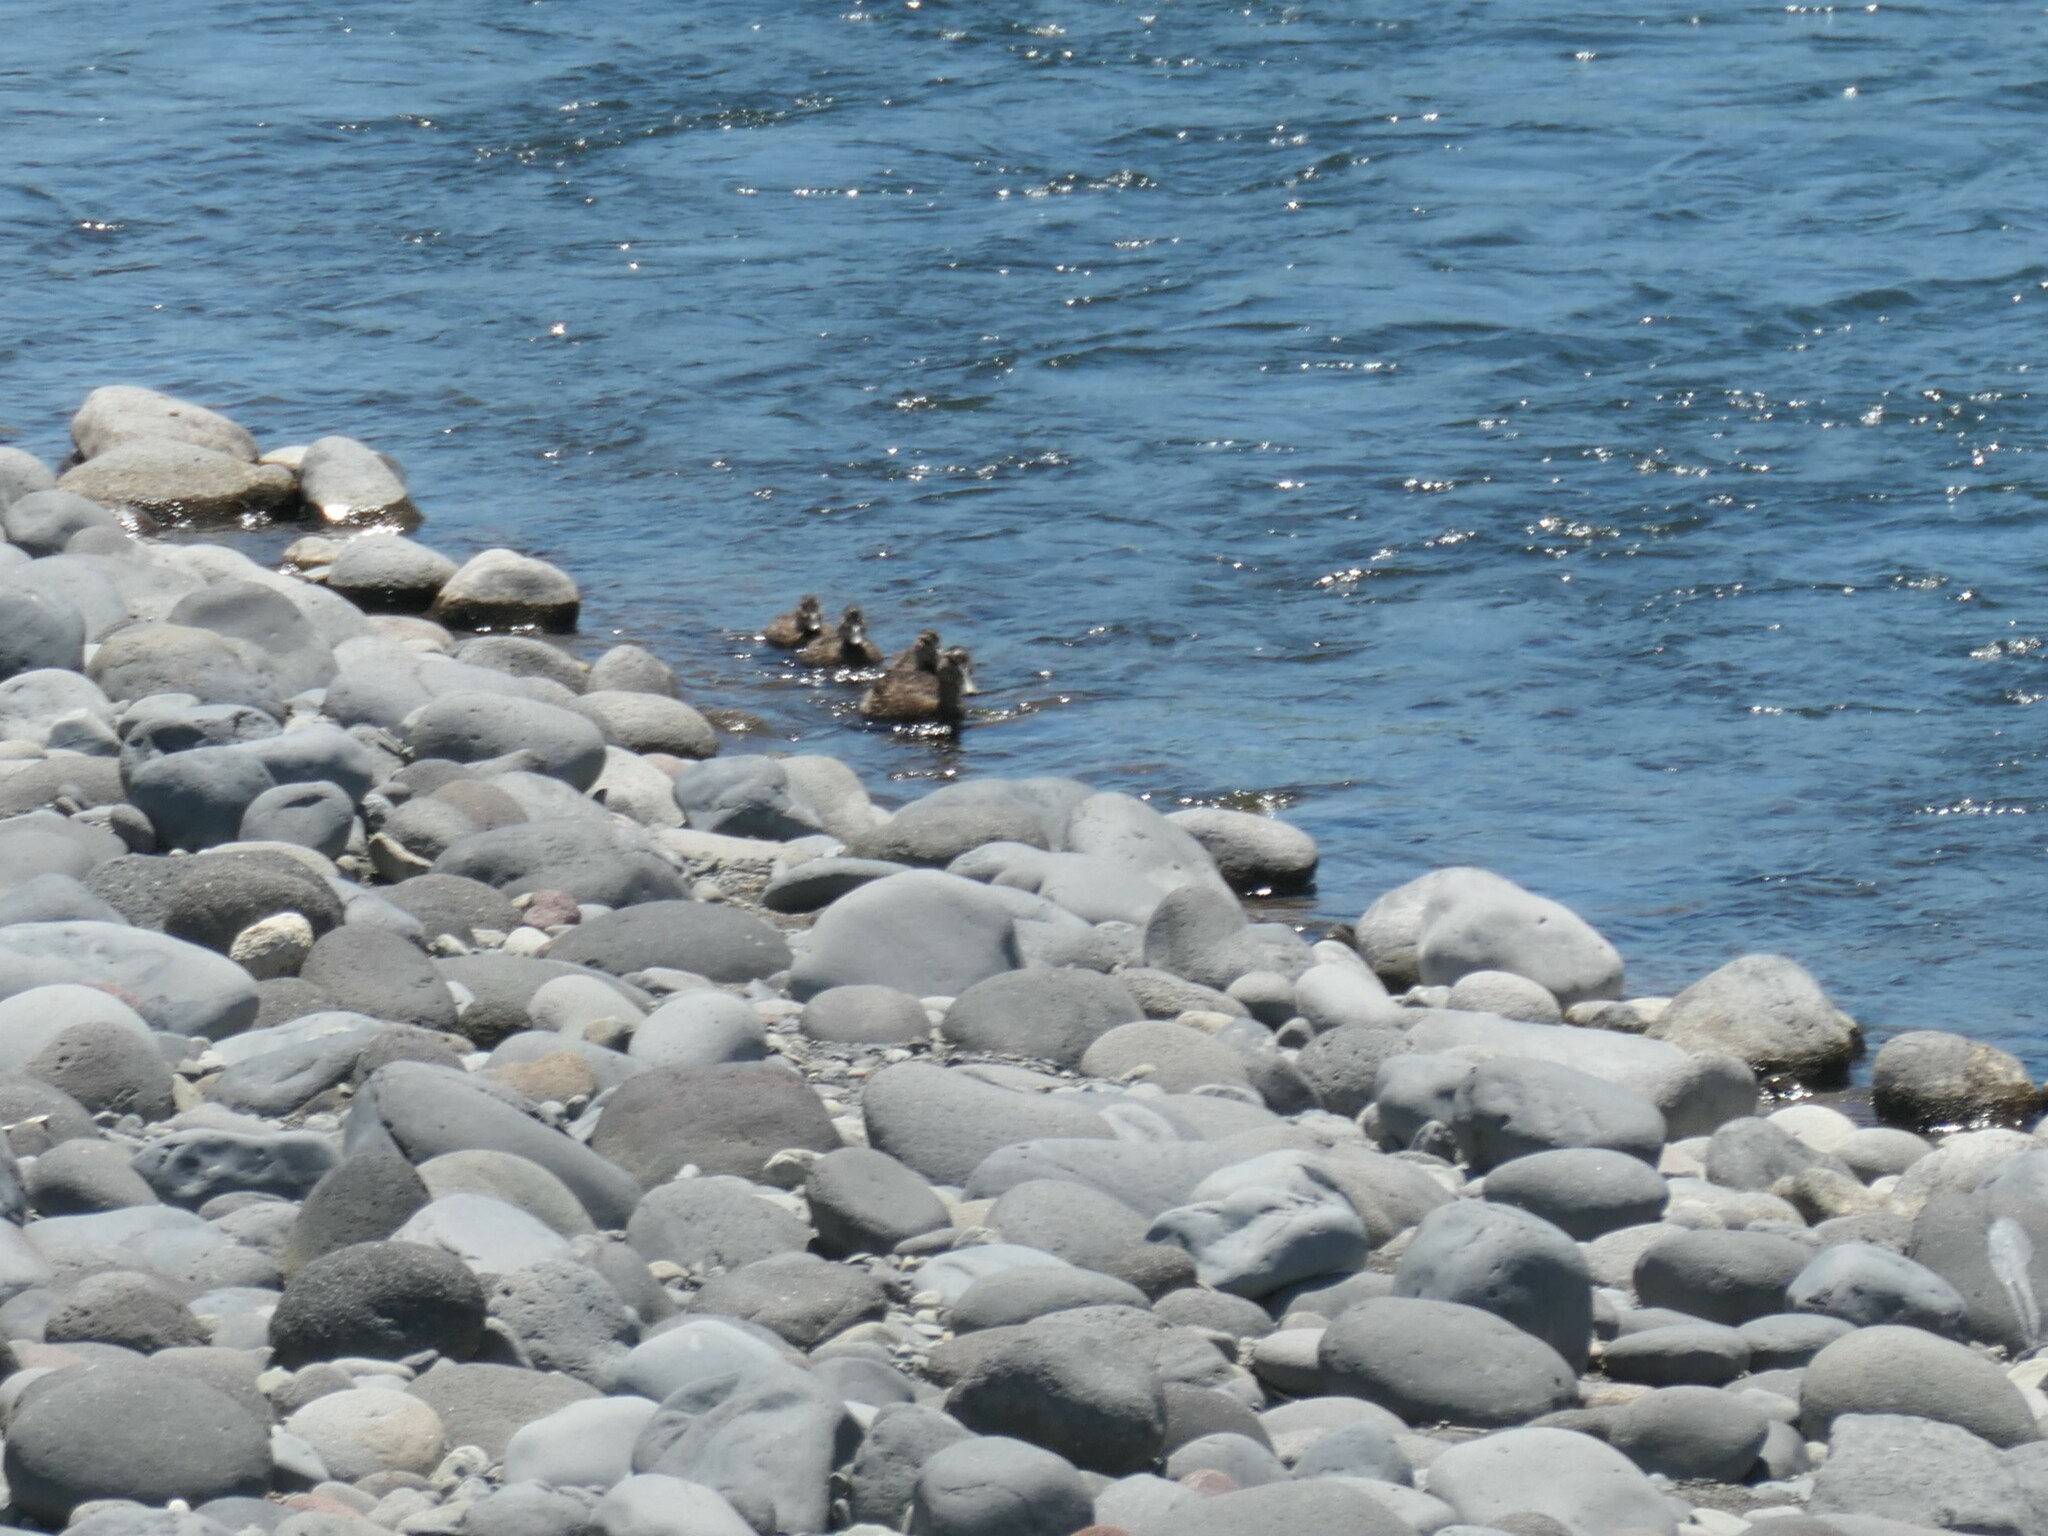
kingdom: Animalia
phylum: Chordata
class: Aves
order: Anseriformes
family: Anatidae
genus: Anas
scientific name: Anas
